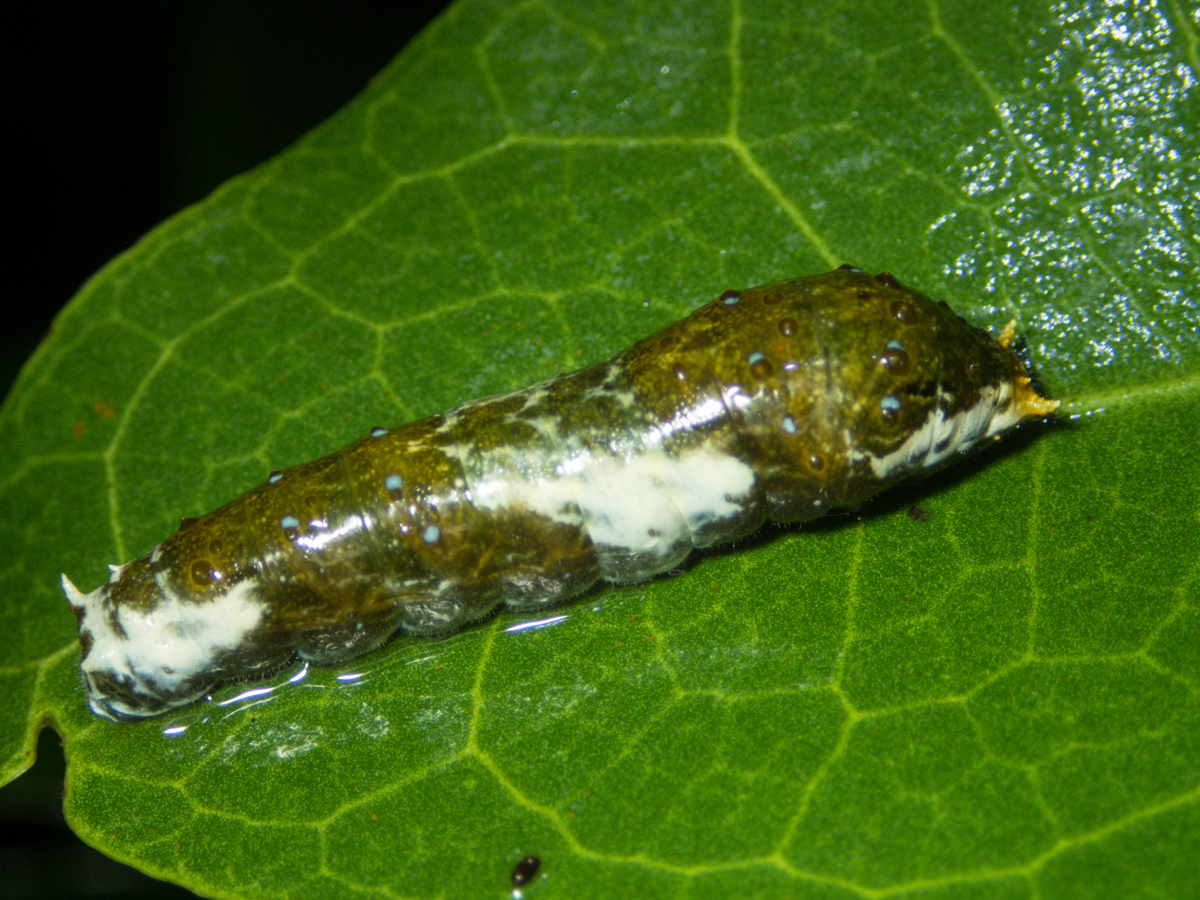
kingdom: Animalia
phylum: Arthropoda
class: Insecta
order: Lepidoptera
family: Papilionidae
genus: Papilio
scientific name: Papilio polytes
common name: Common mormon
